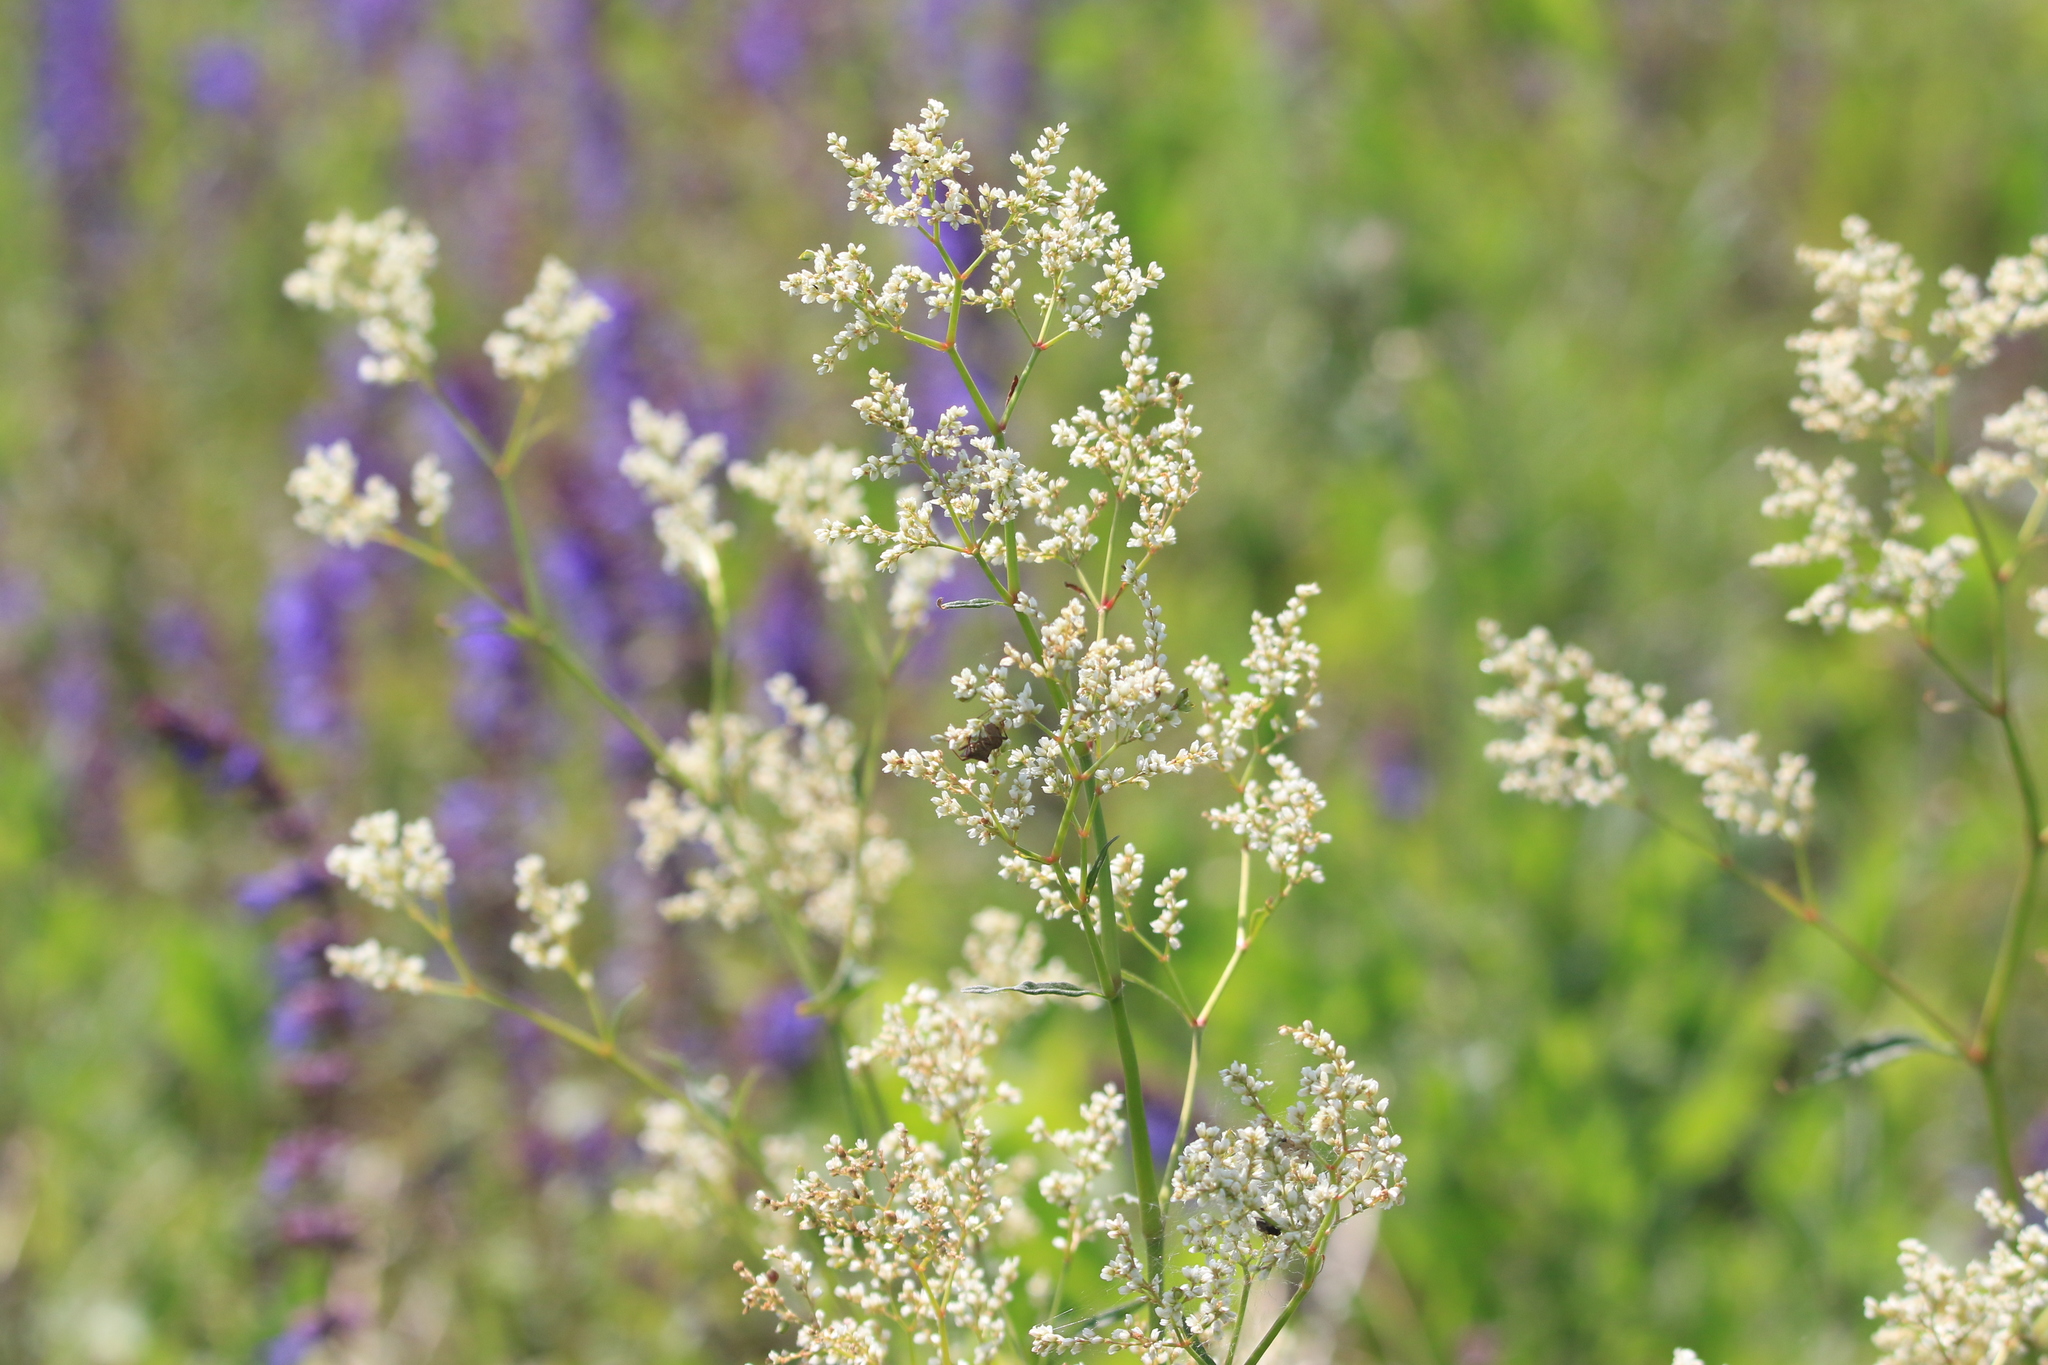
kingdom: Plantae
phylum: Tracheophyta
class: Magnoliopsida
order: Caryophyllales
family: Polygonaceae
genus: Koenigia
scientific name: Koenigia alpina
